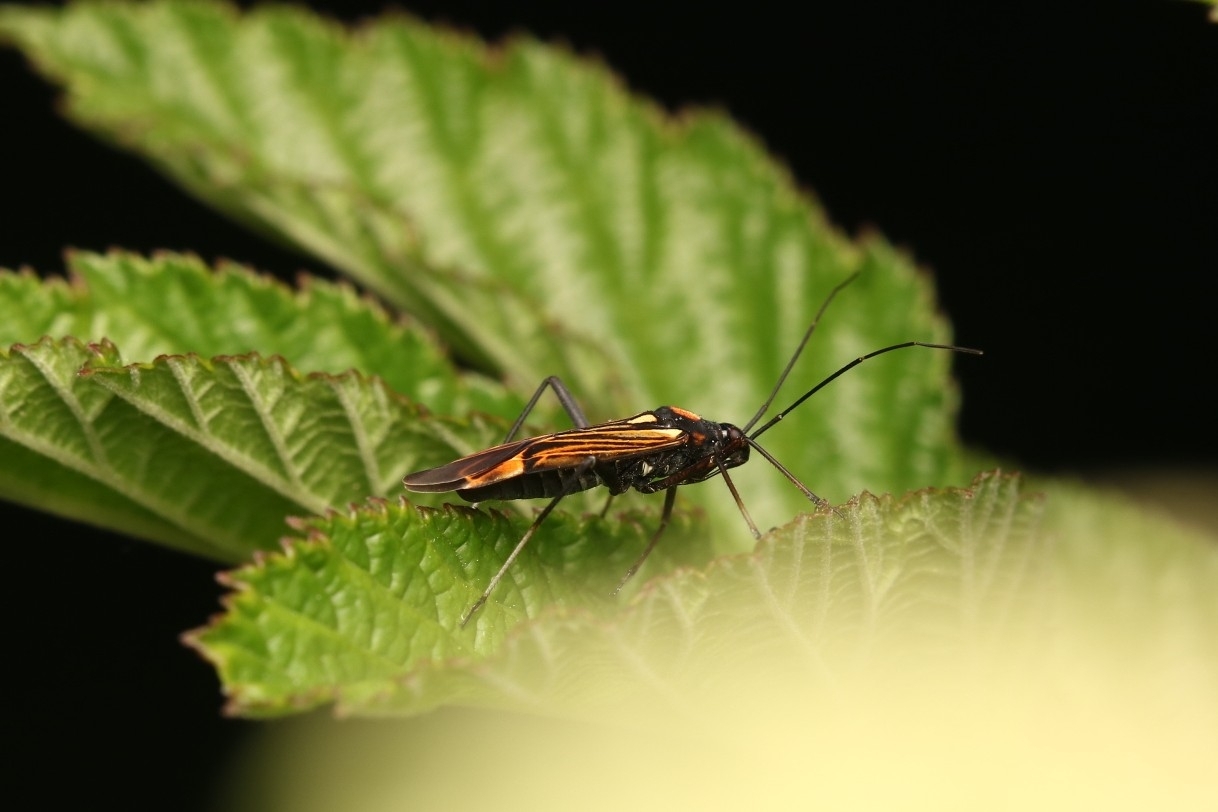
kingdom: Animalia
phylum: Arthropoda
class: Insecta
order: Hemiptera
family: Miridae
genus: Miris
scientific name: Miris striatus
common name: Fine streaked bugkin
